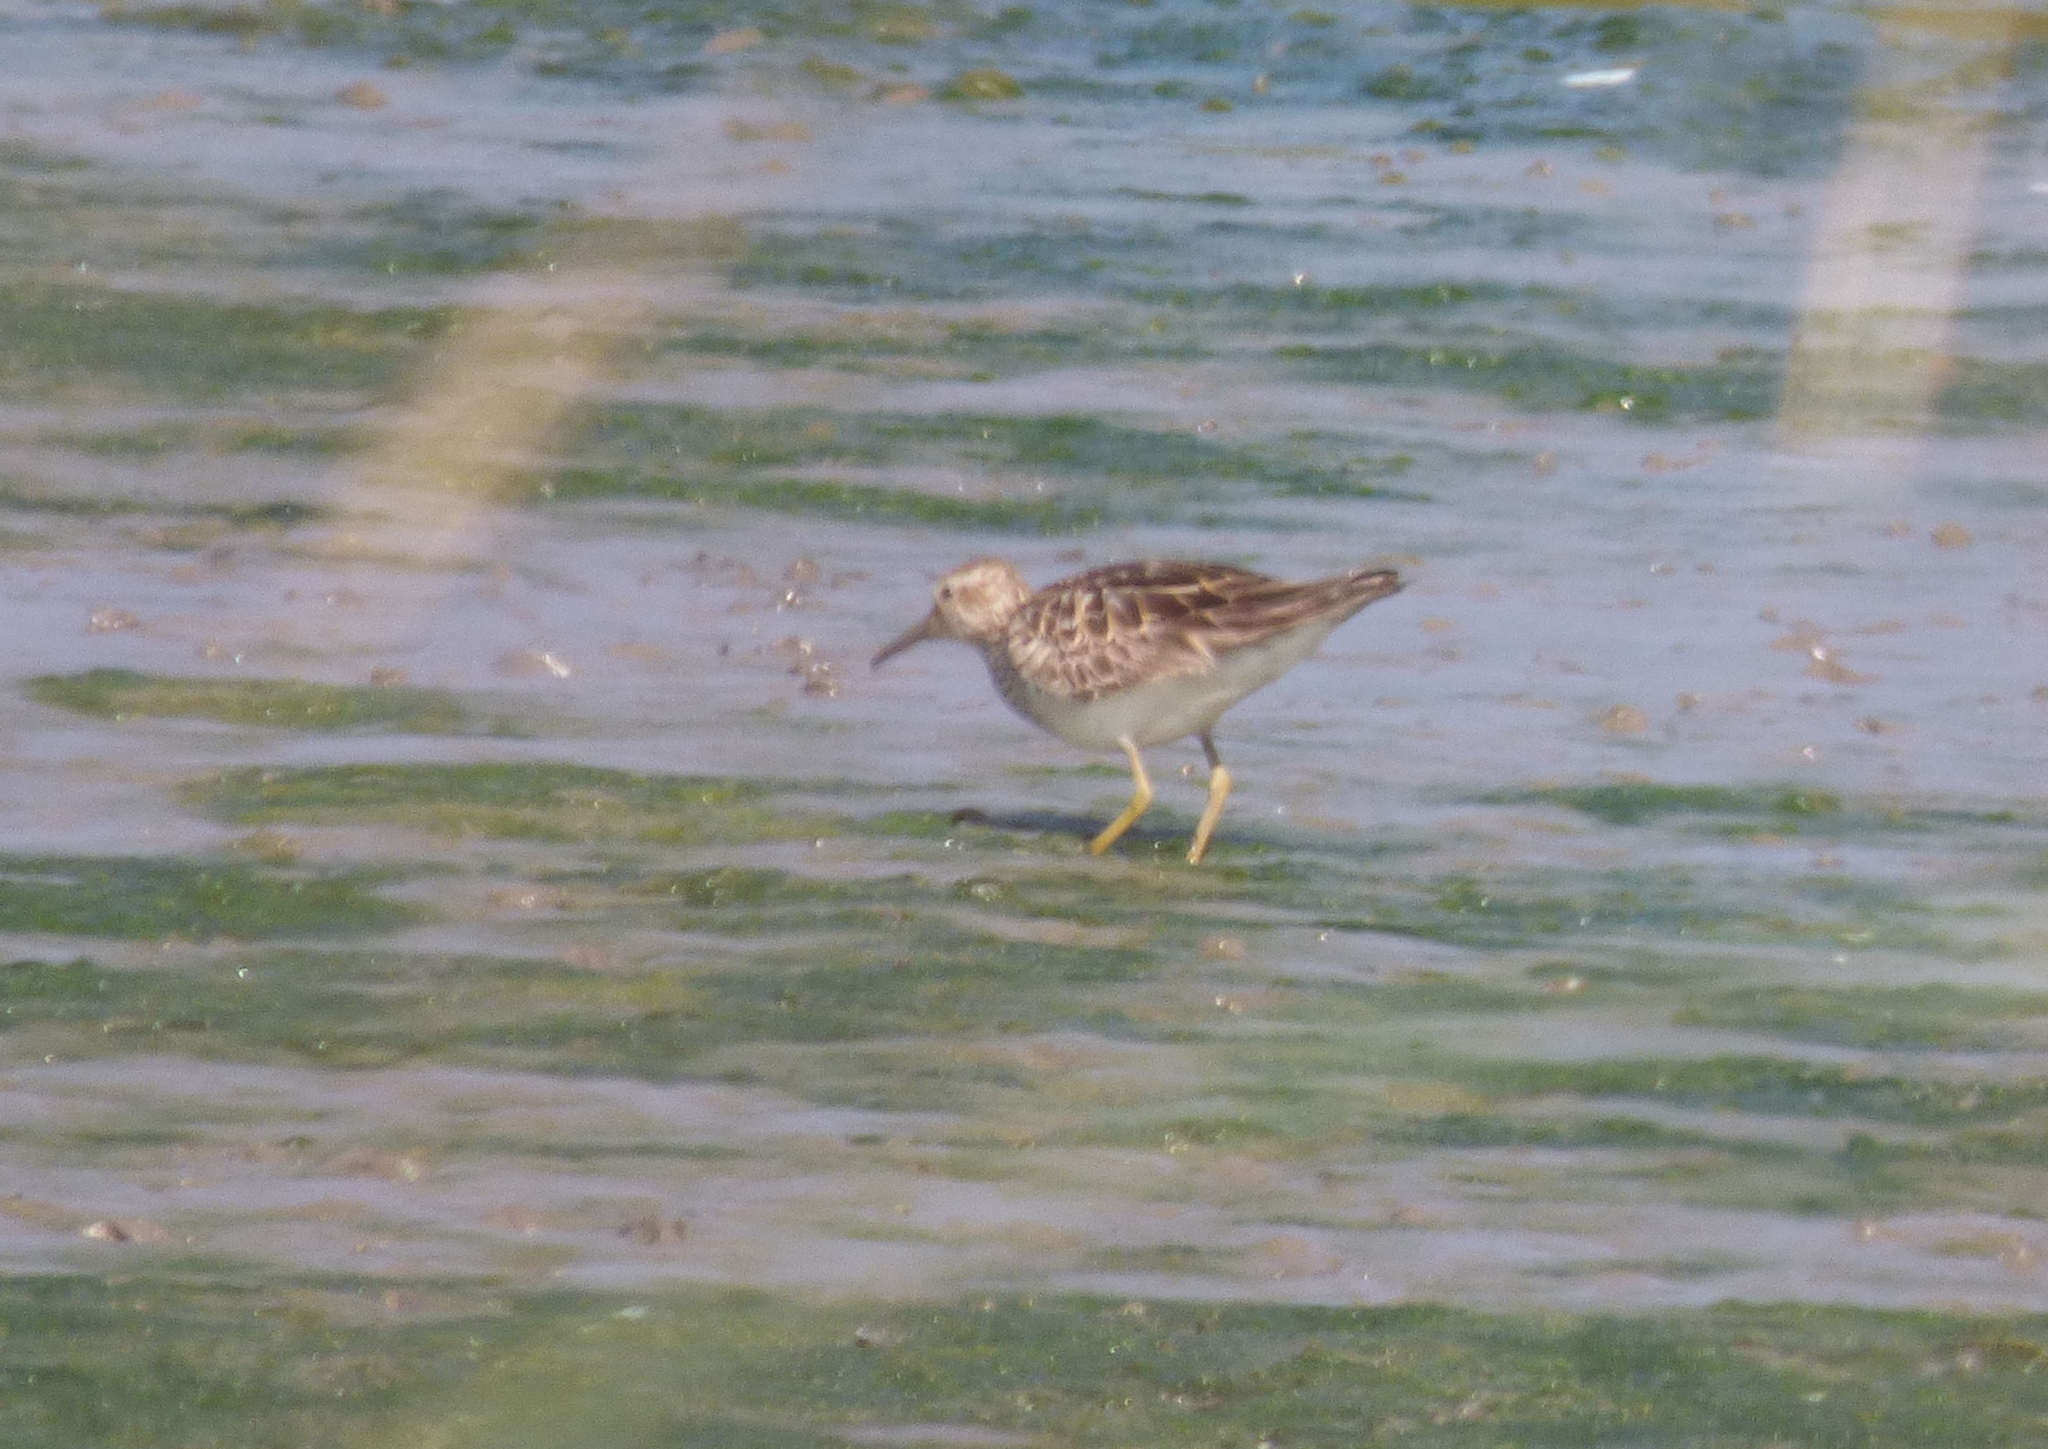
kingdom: Animalia
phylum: Chordata
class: Aves
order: Charadriiformes
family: Scolopacidae
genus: Calidris
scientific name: Calidris melanotos
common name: Pectoral sandpiper
